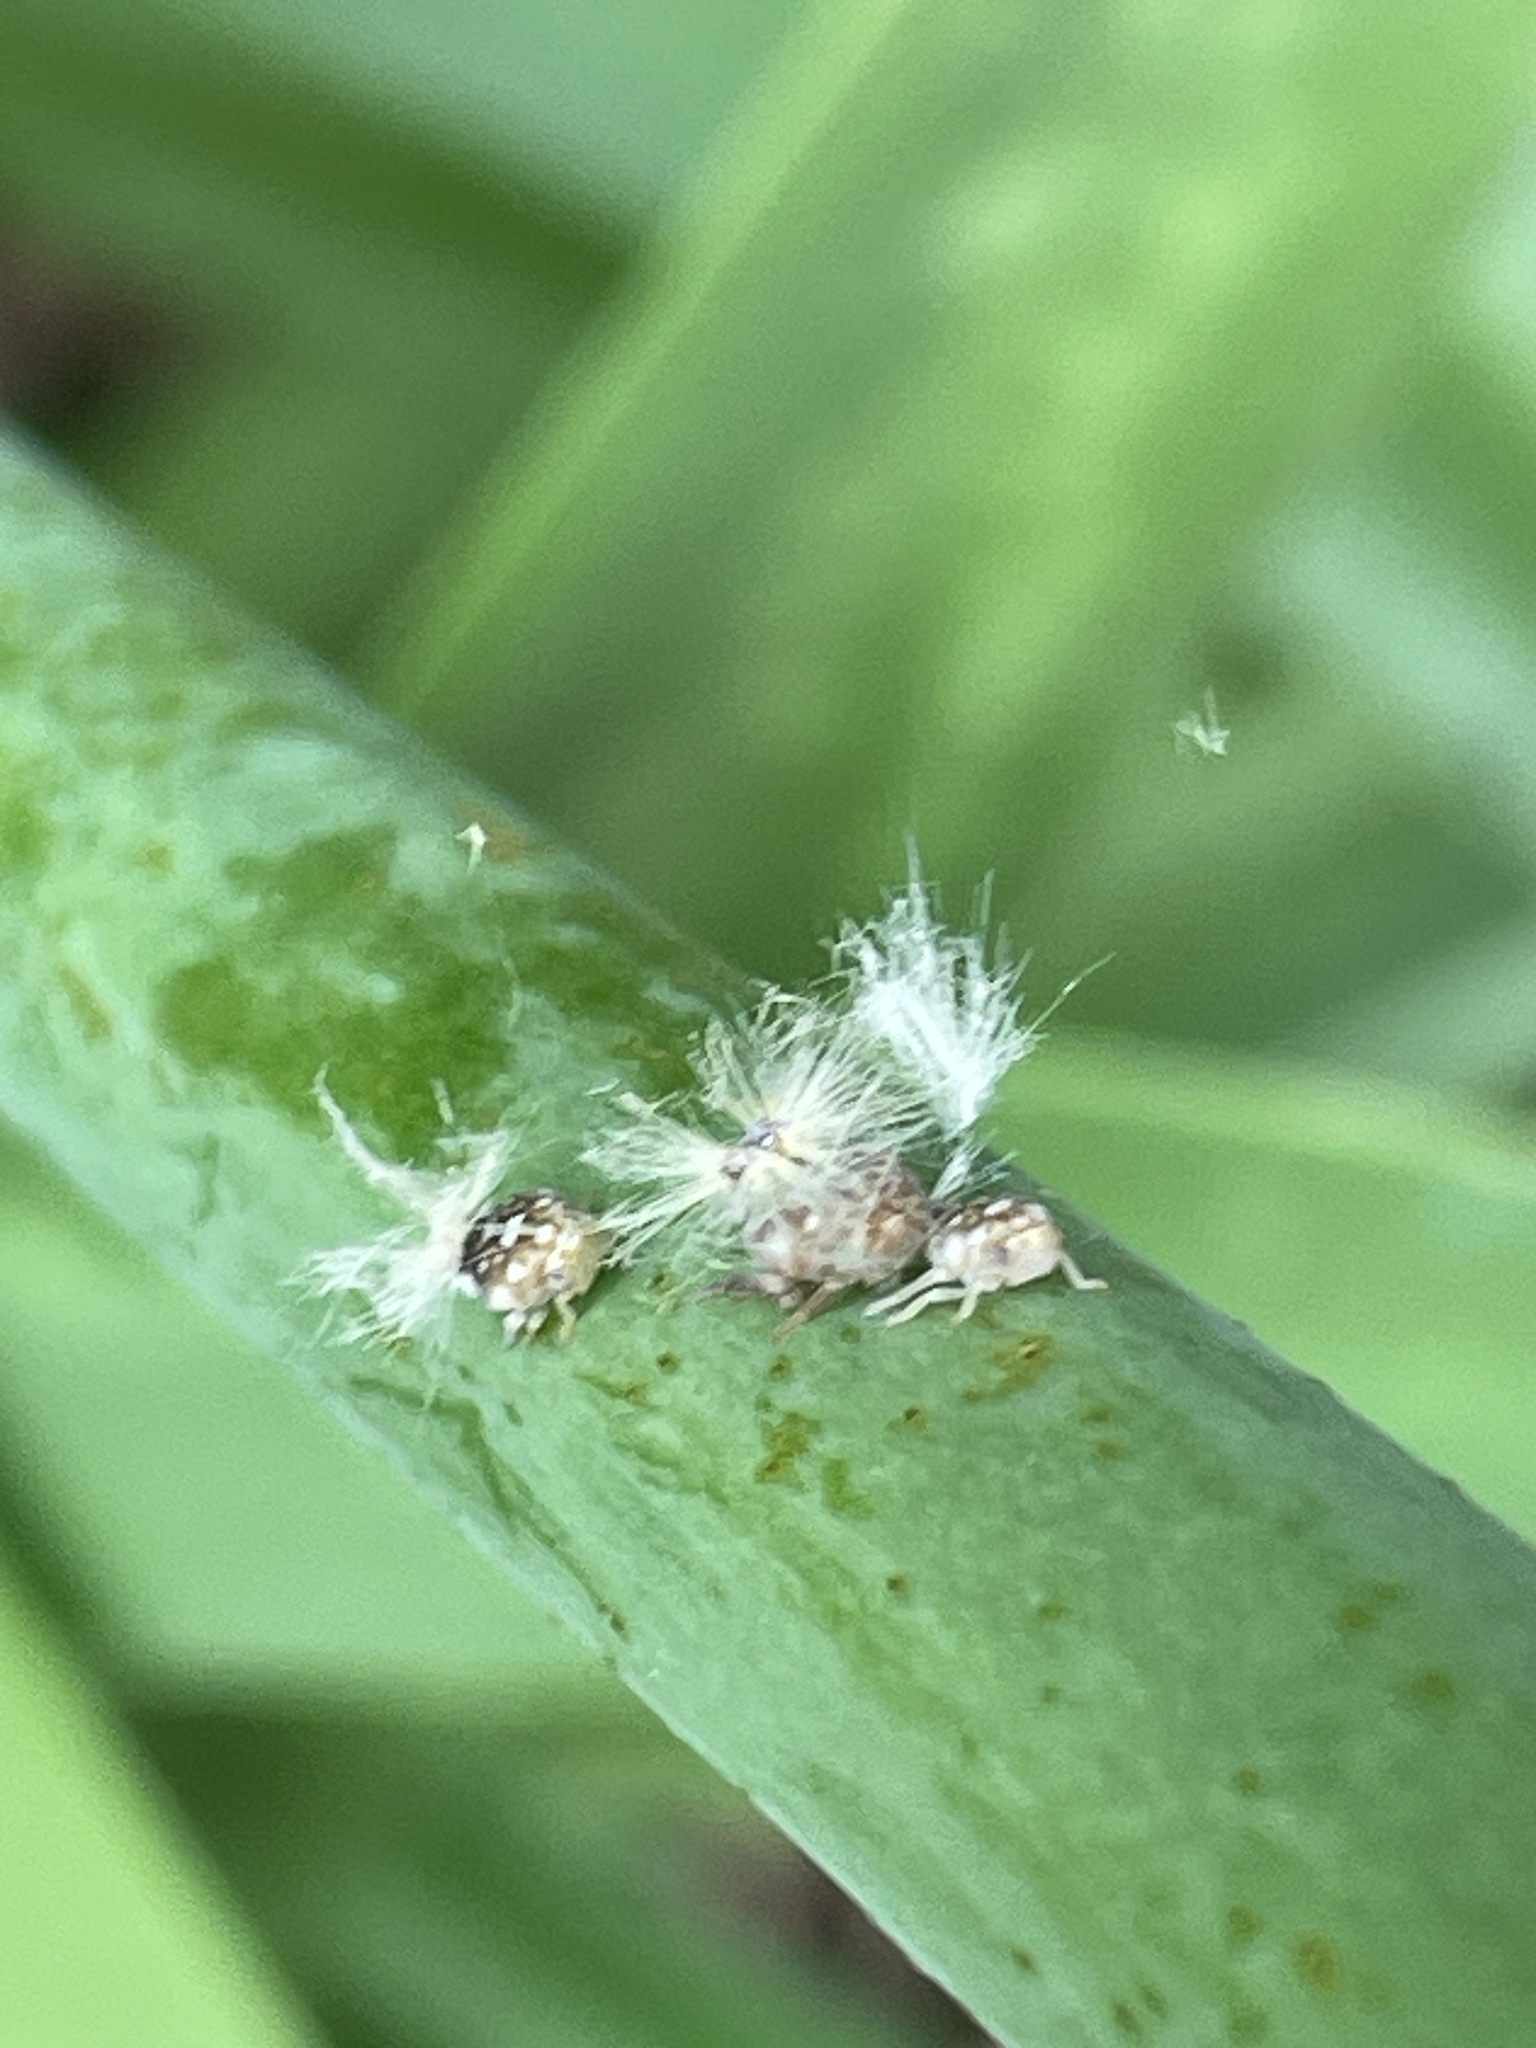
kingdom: Animalia
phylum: Arthropoda
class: Insecta
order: Hemiptera
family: Ricaniidae
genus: Scolypopa
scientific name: Scolypopa australis
